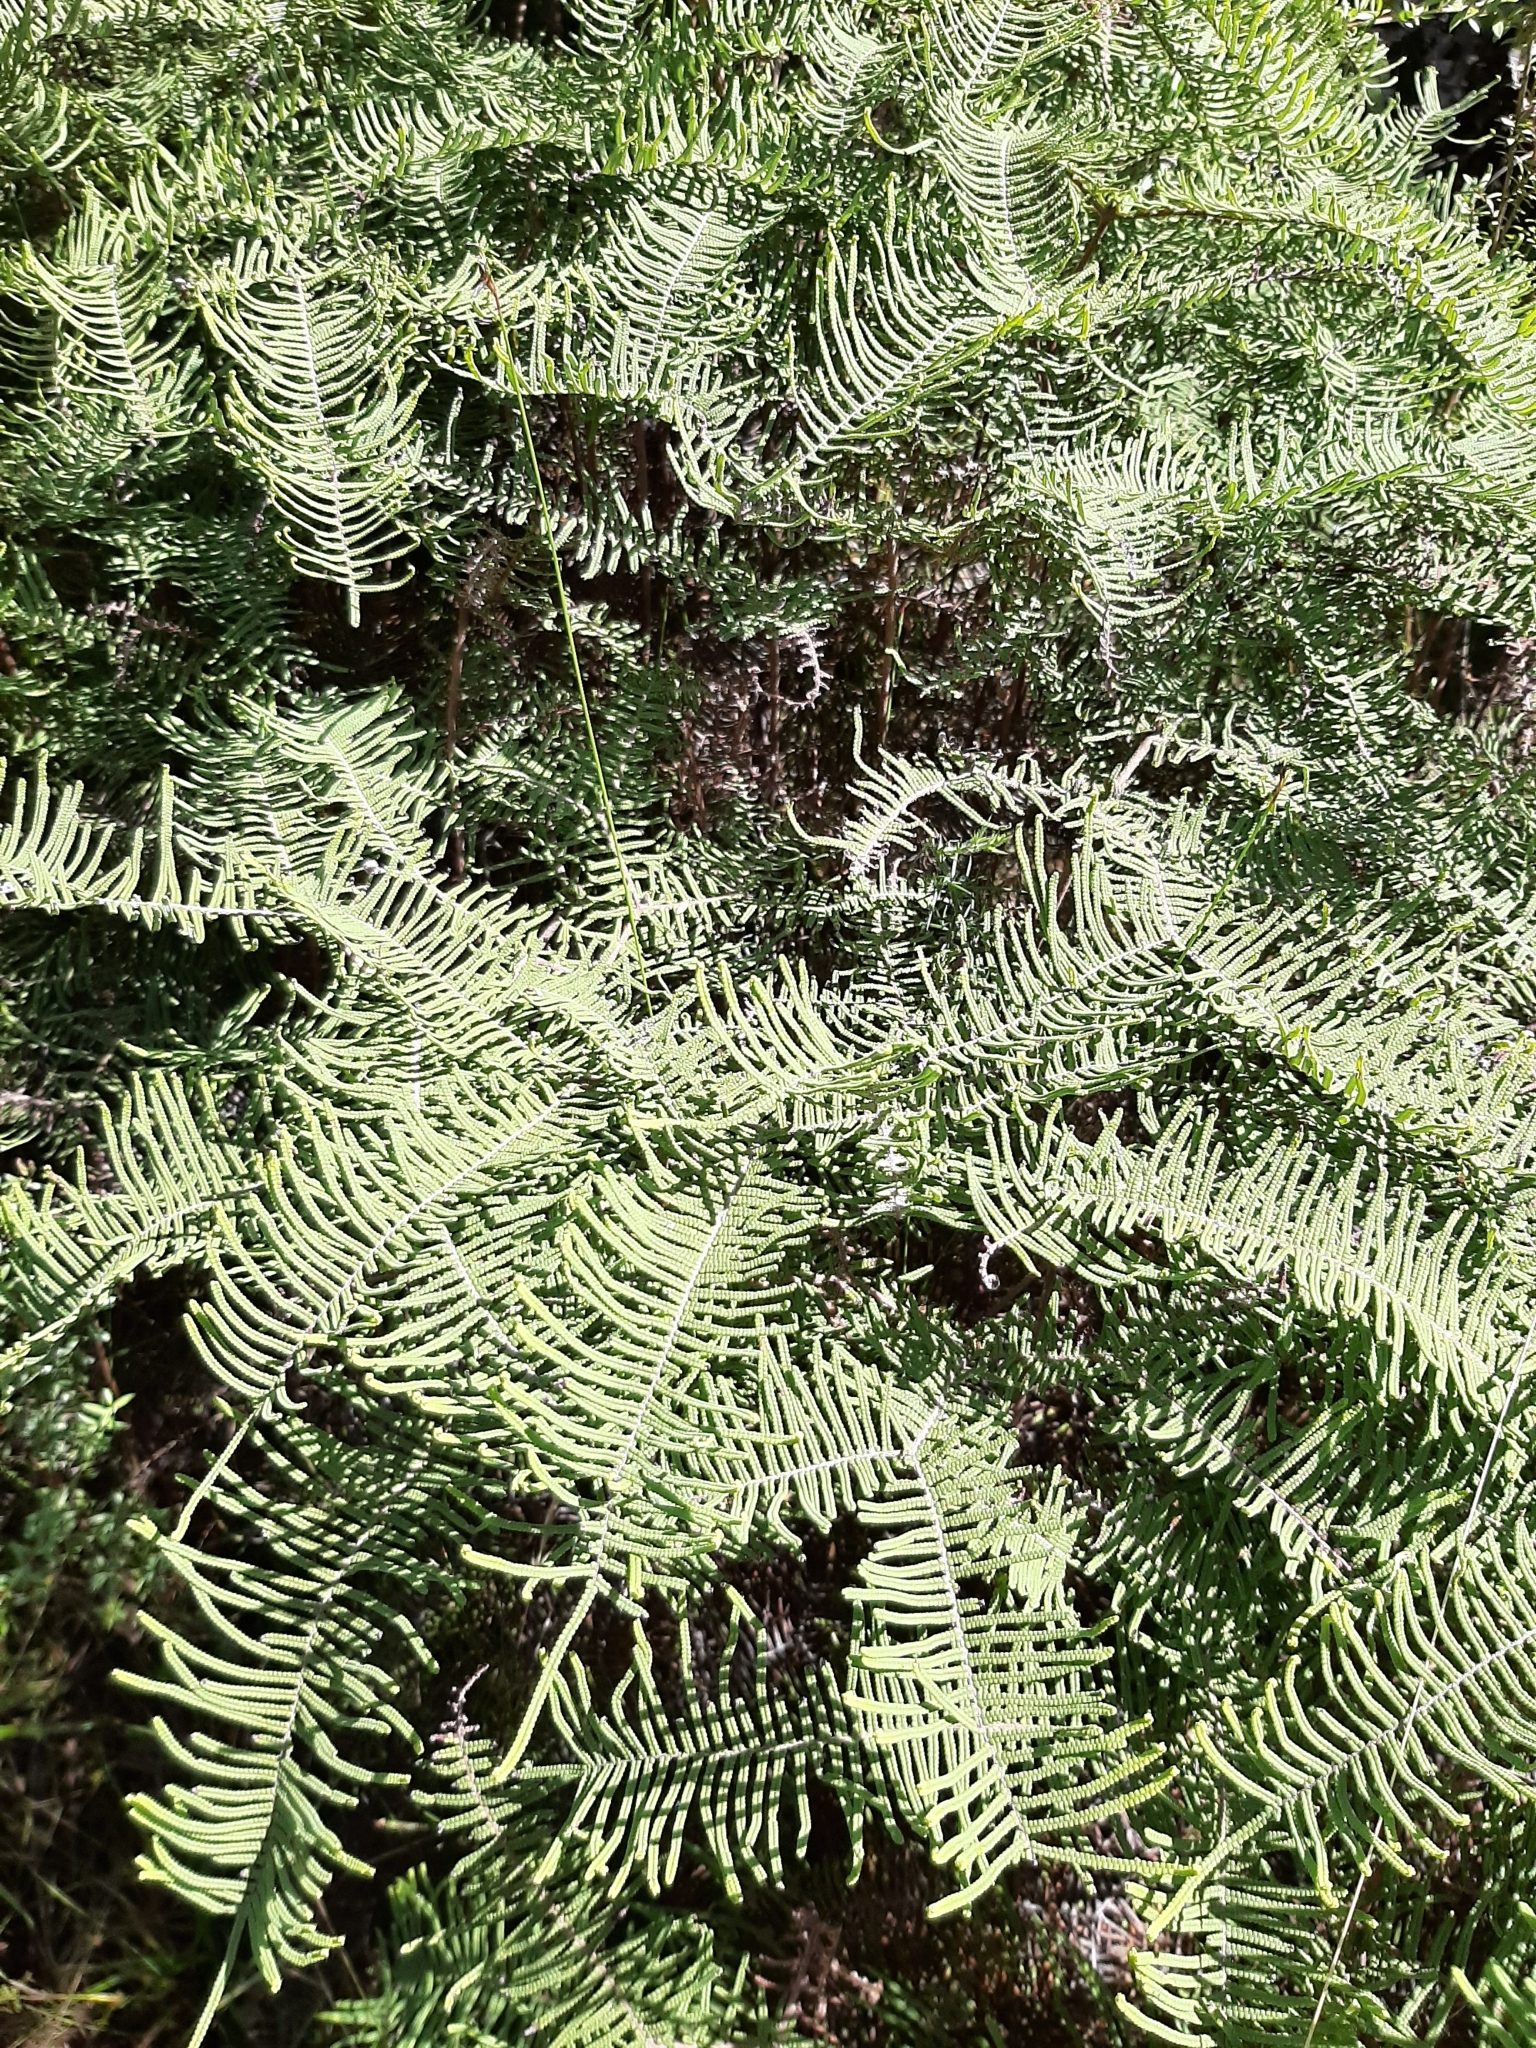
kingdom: Plantae
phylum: Tracheophyta
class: Polypodiopsida
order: Gleicheniales
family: Gleicheniaceae
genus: Gleichenia
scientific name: Gleichenia dicarpa
